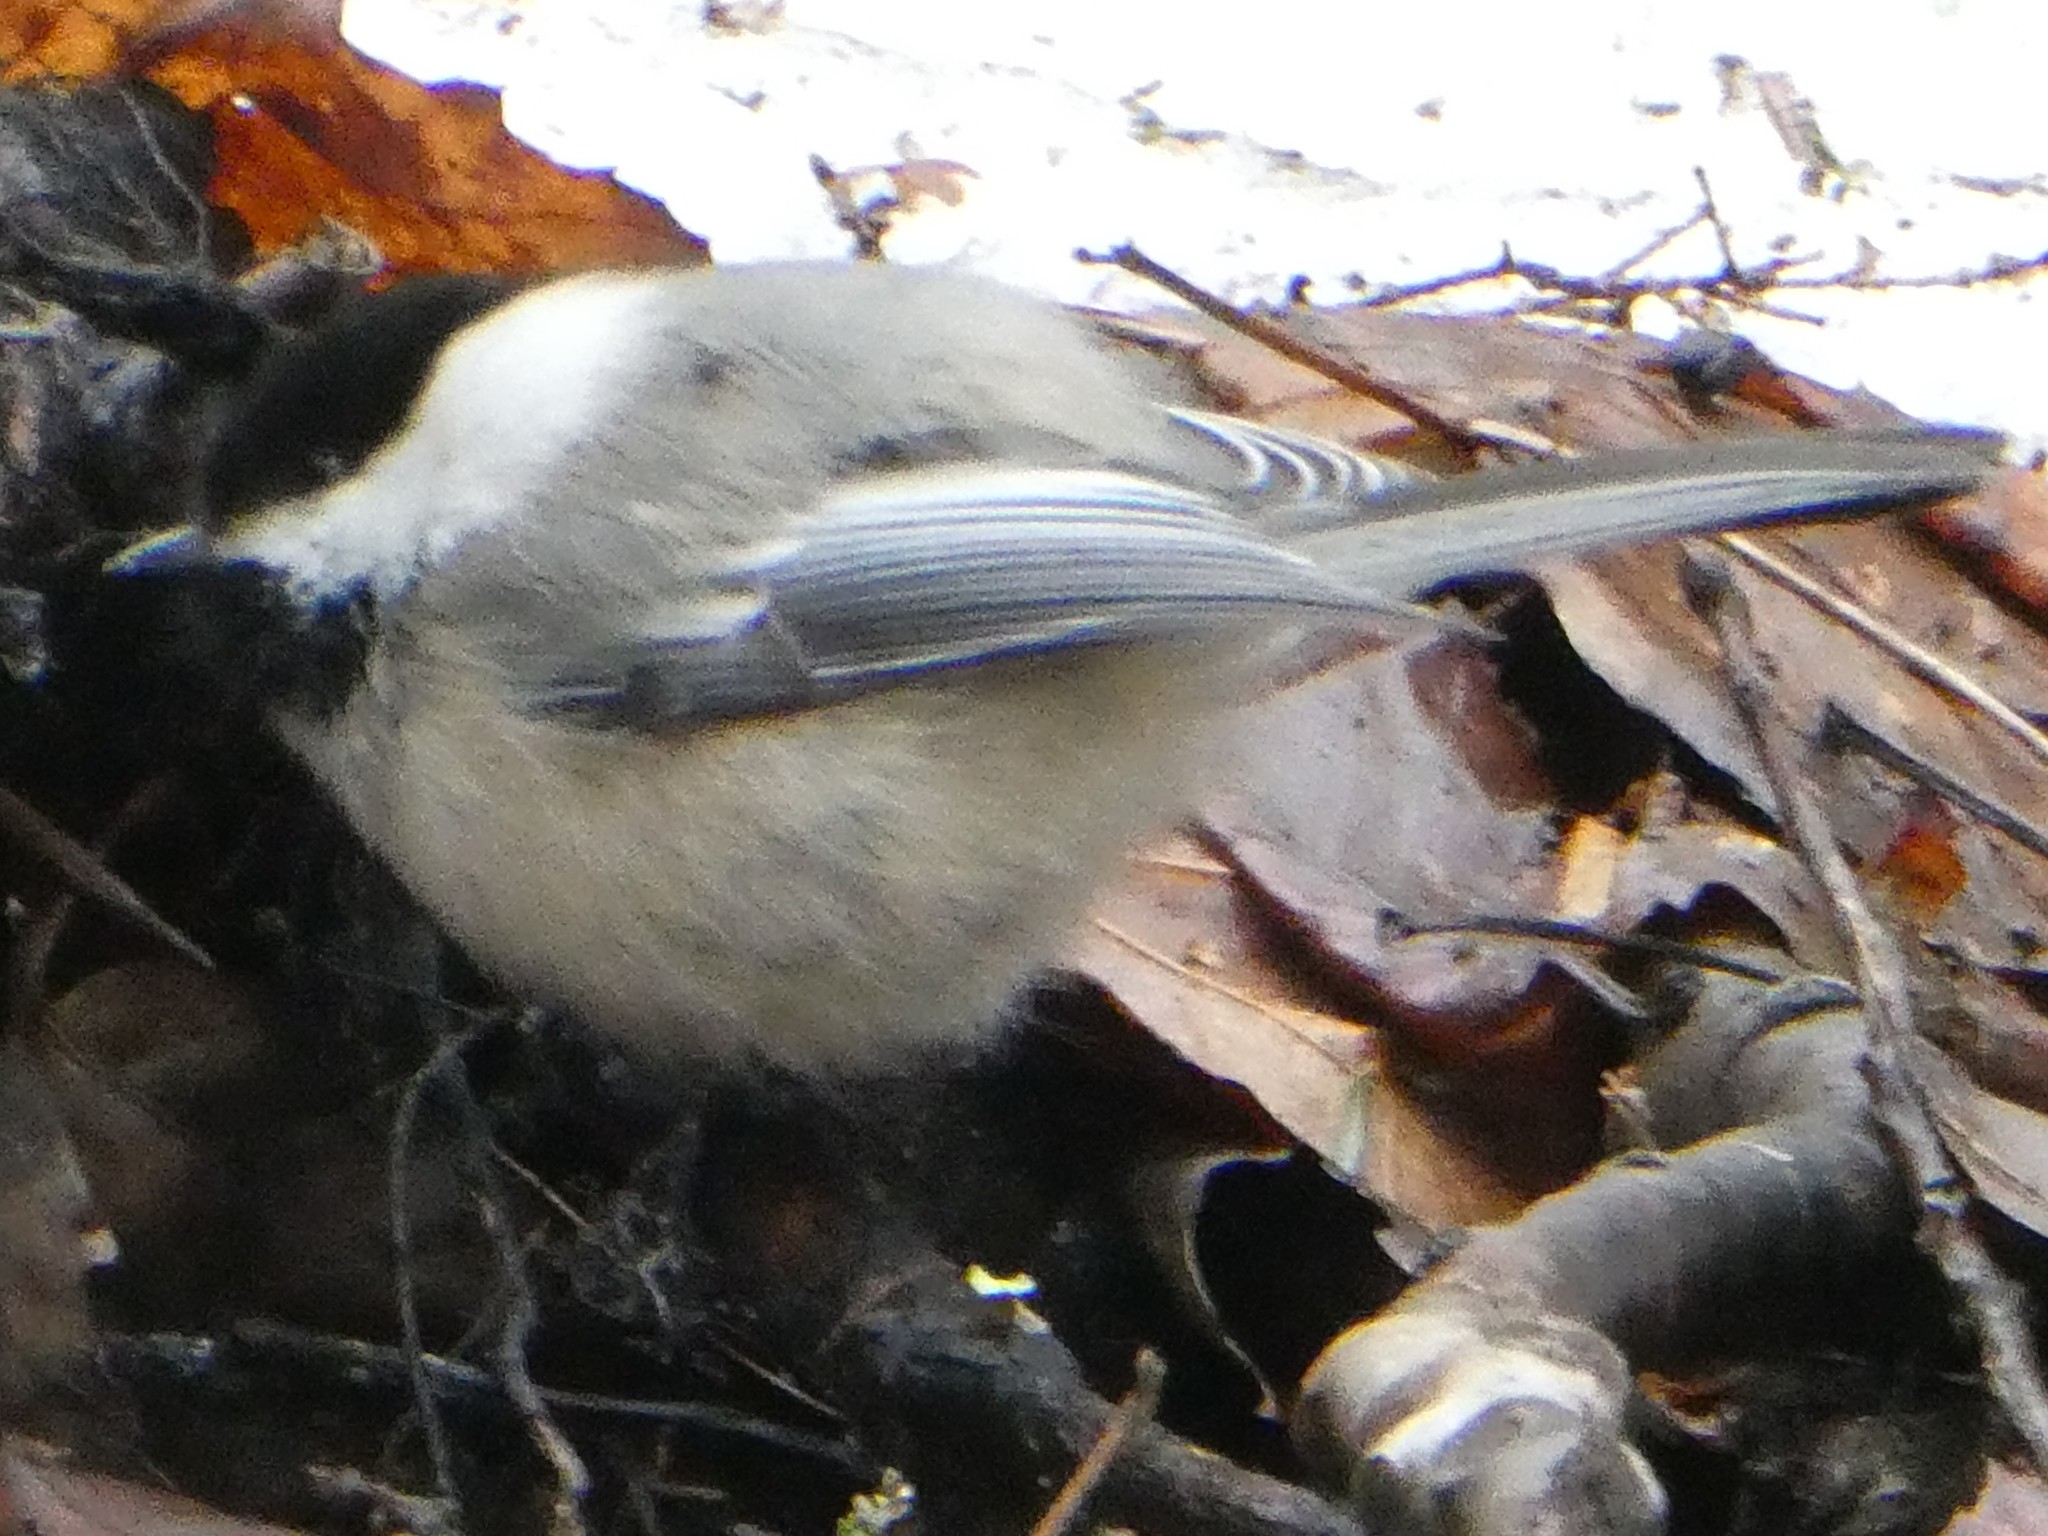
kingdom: Animalia
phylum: Chordata
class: Aves
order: Passeriformes
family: Paridae
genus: Poecile
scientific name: Poecile atricapillus
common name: Black-capped chickadee
